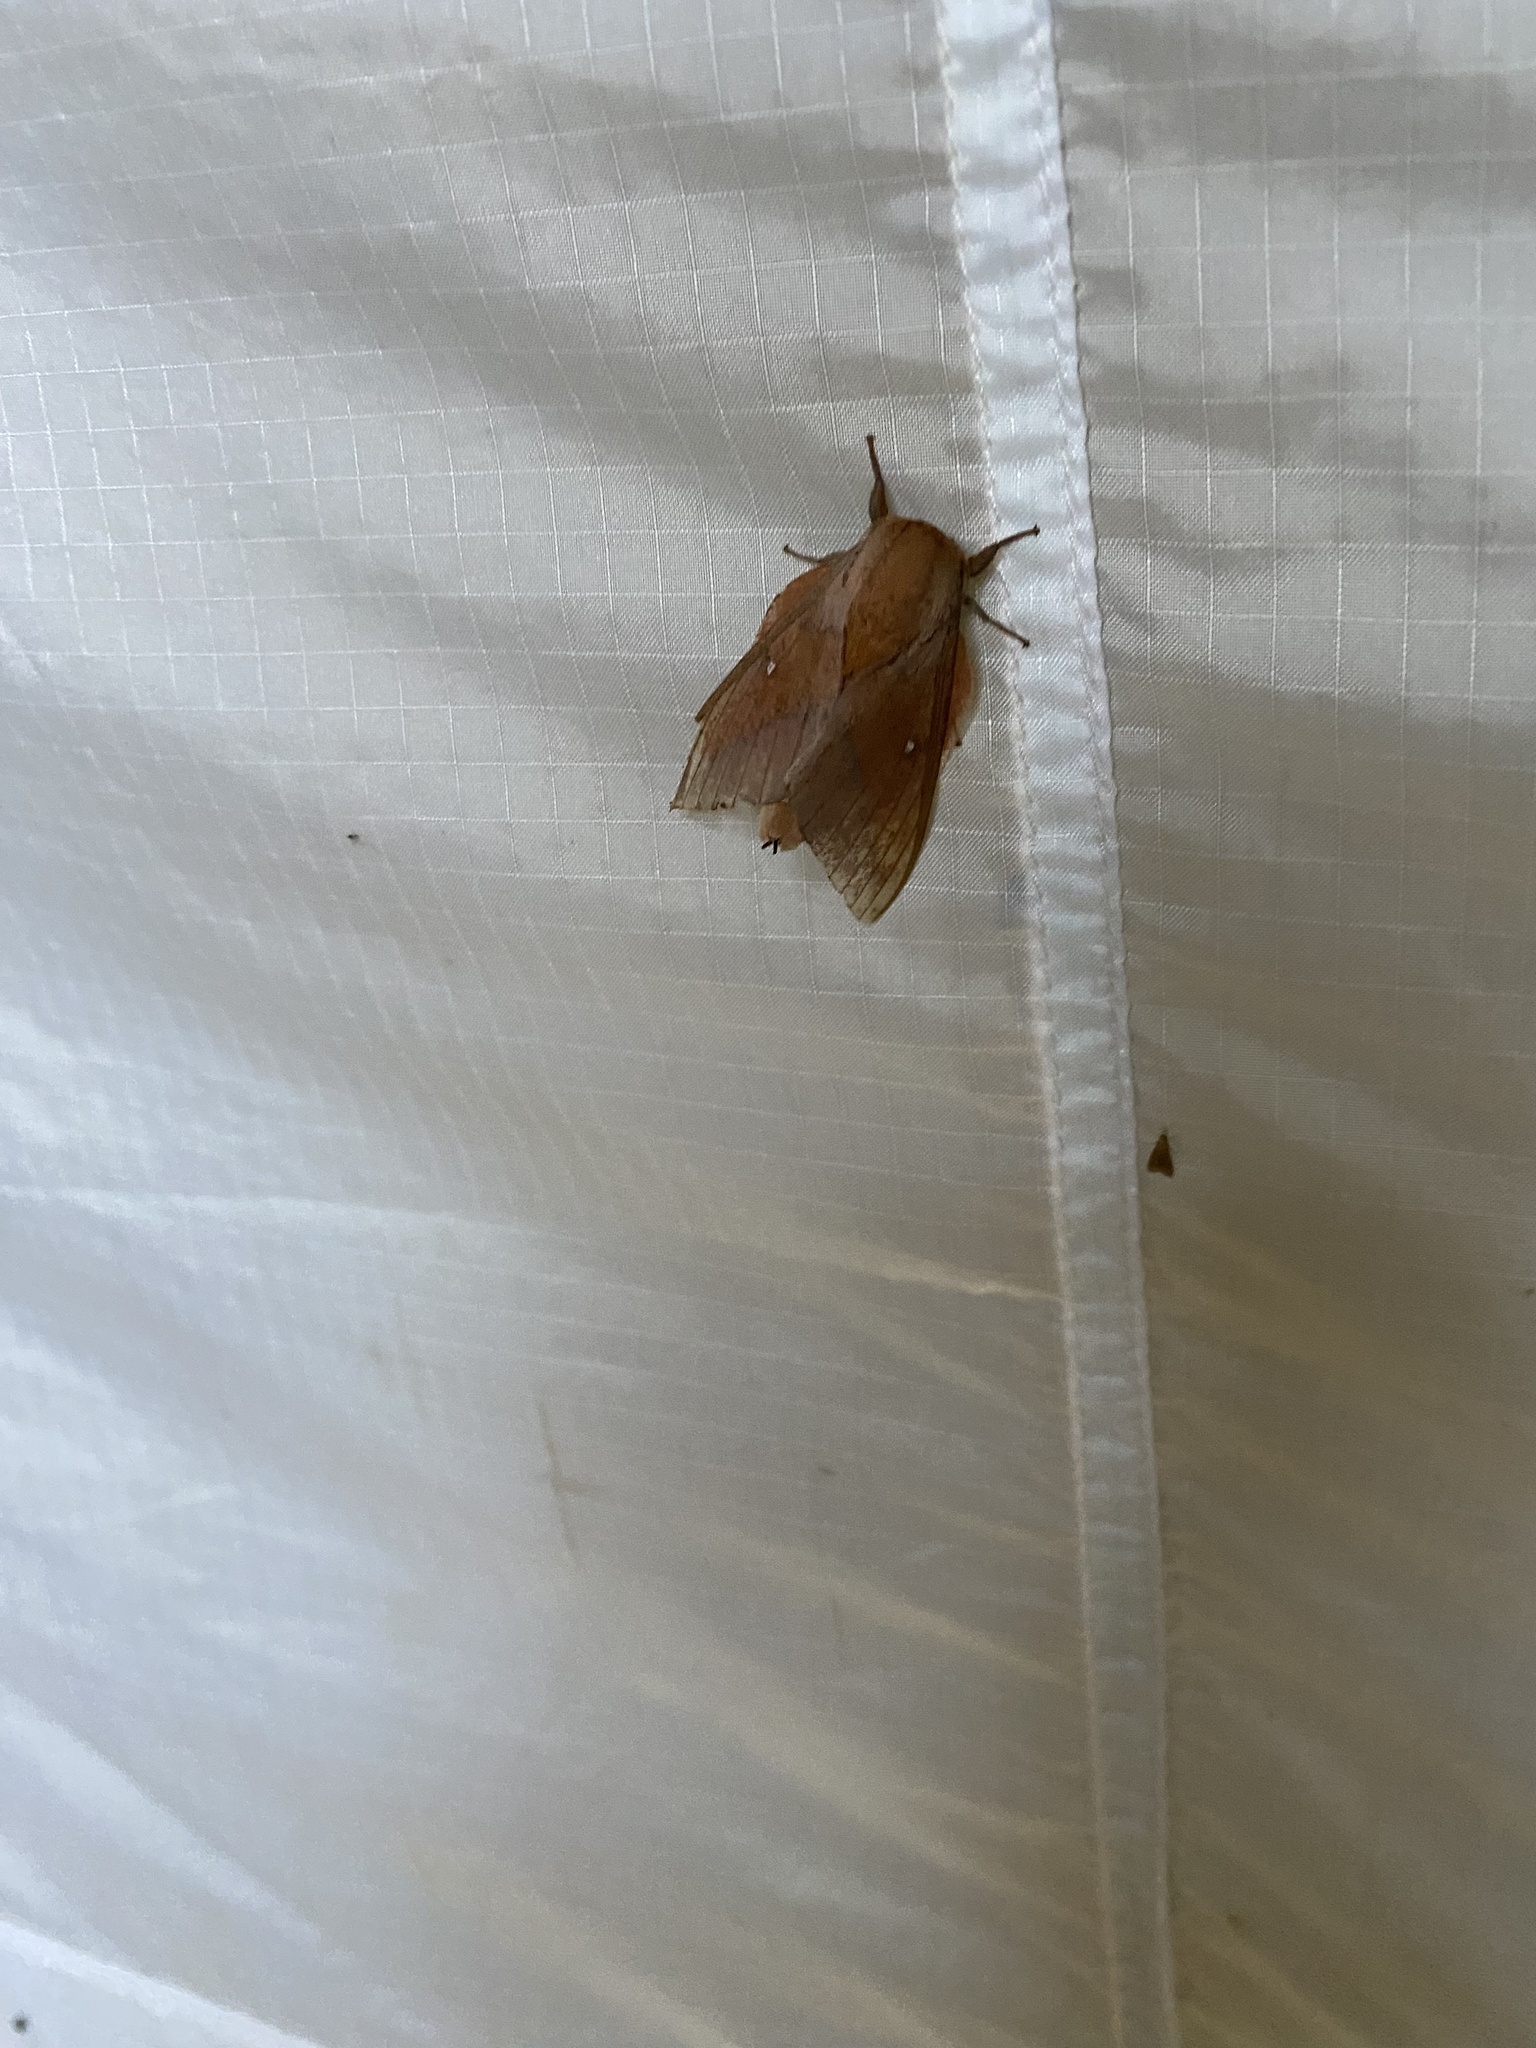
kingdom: Animalia
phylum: Arthropoda
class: Insecta
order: Lepidoptera
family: Saturniidae
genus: Othorene
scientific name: Othorene verana
